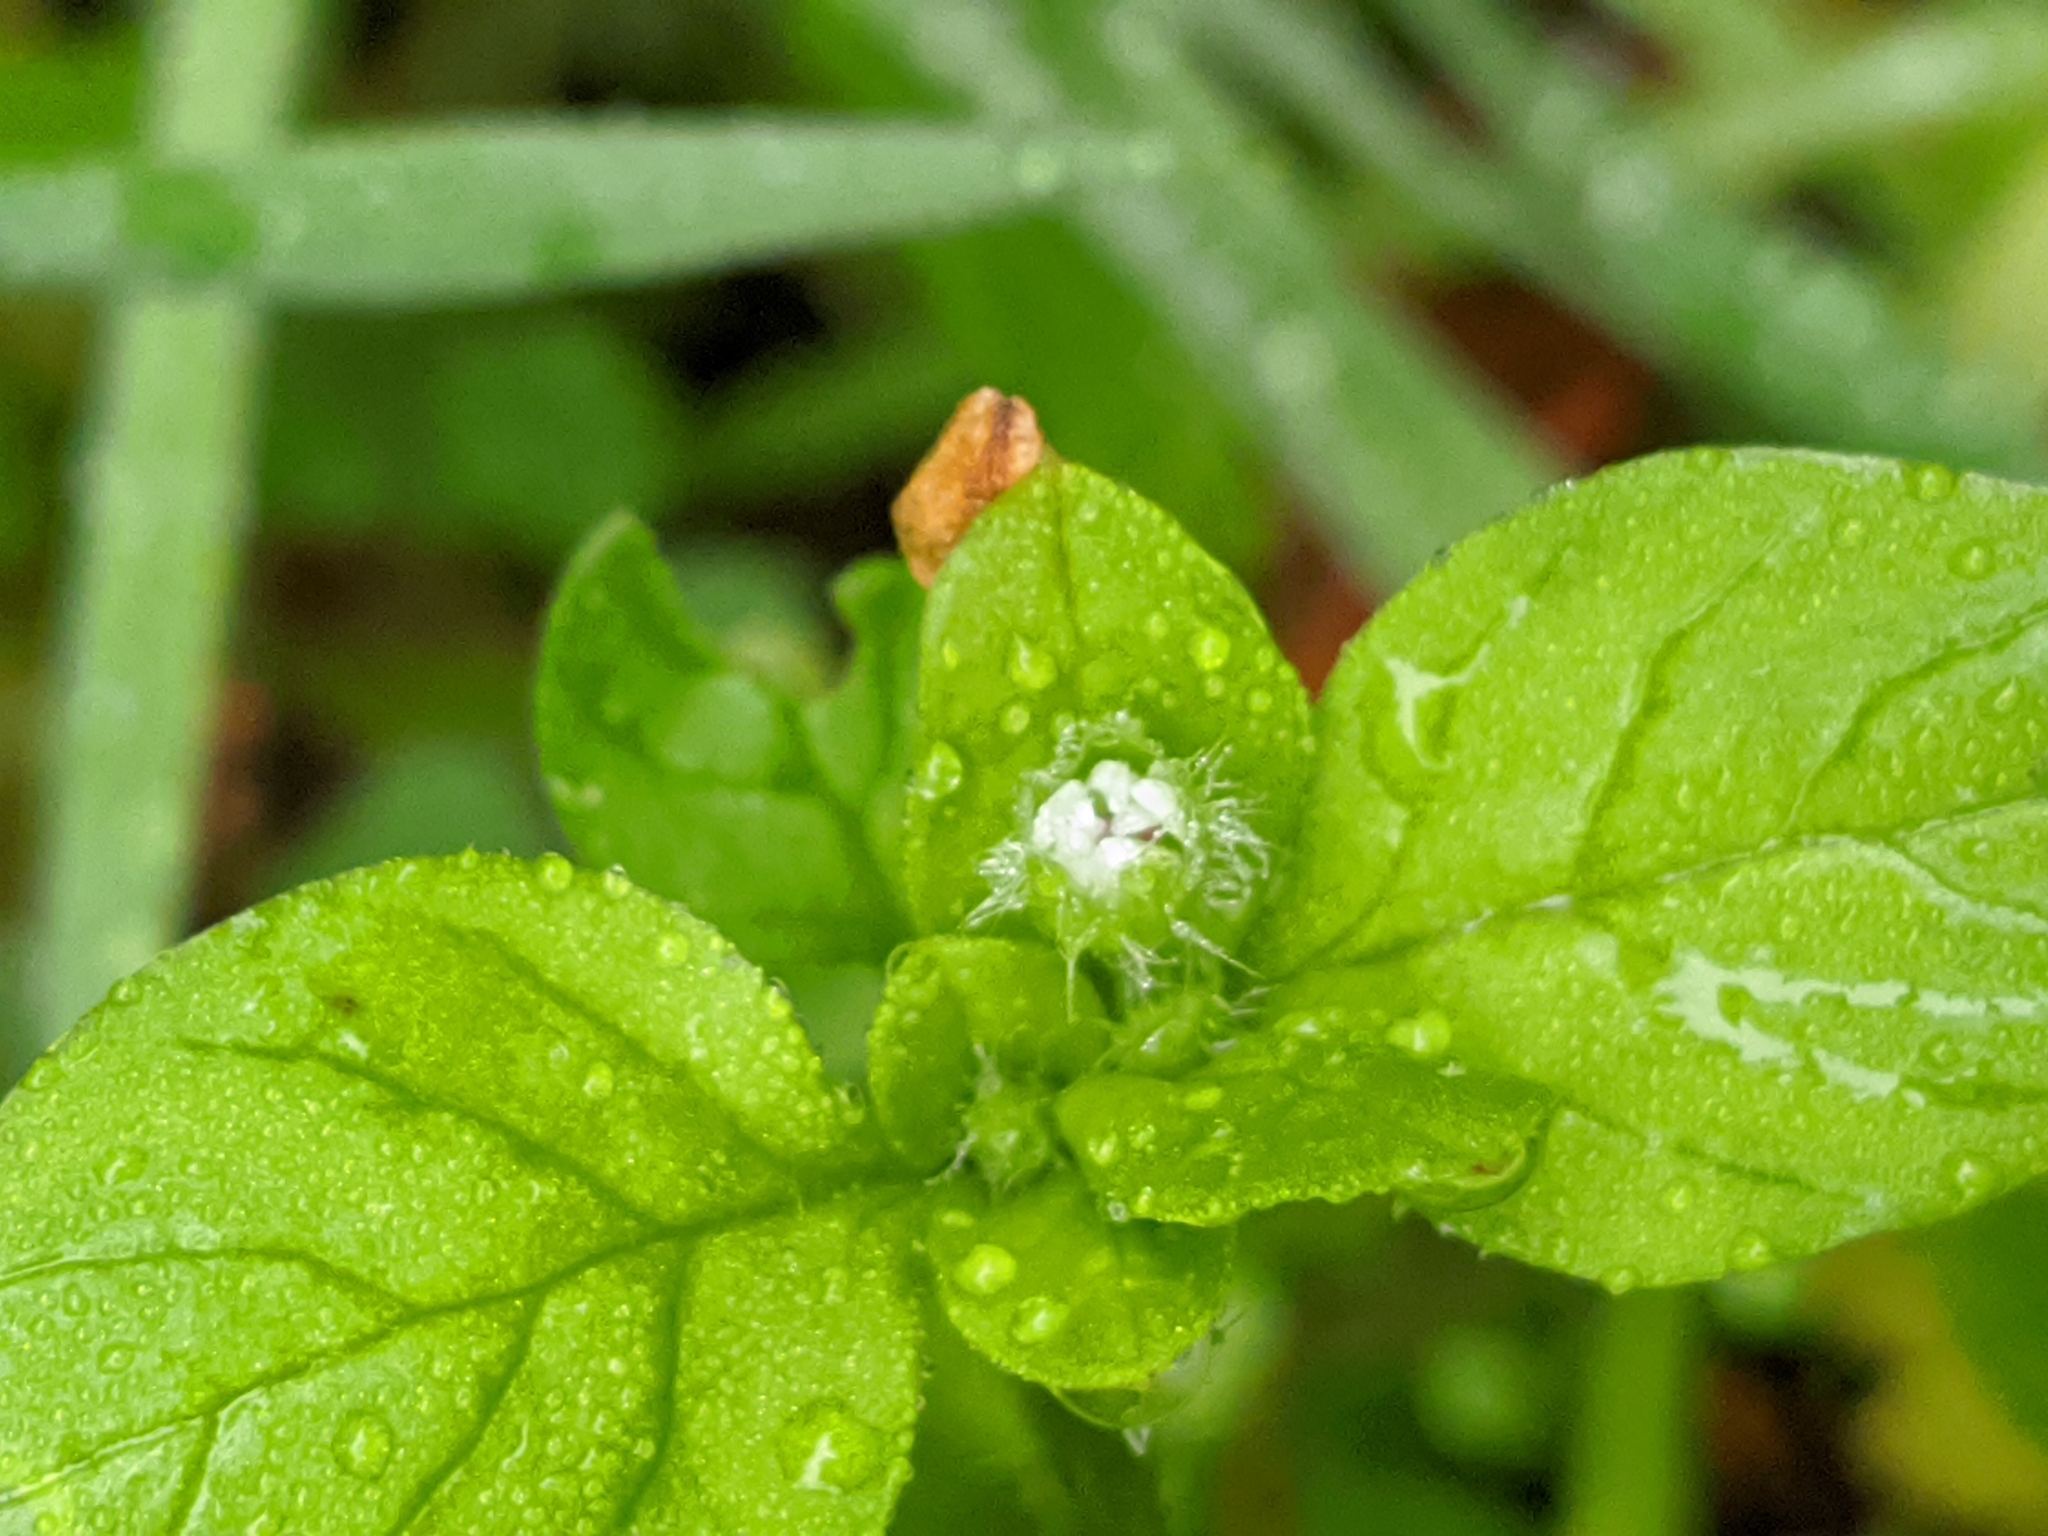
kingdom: Plantae
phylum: Tracheophyta
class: Magnoliopsida
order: Caryophyllales
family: Caryophyllaceae
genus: Stellaria
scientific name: Stellaria media
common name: Common chickweed
